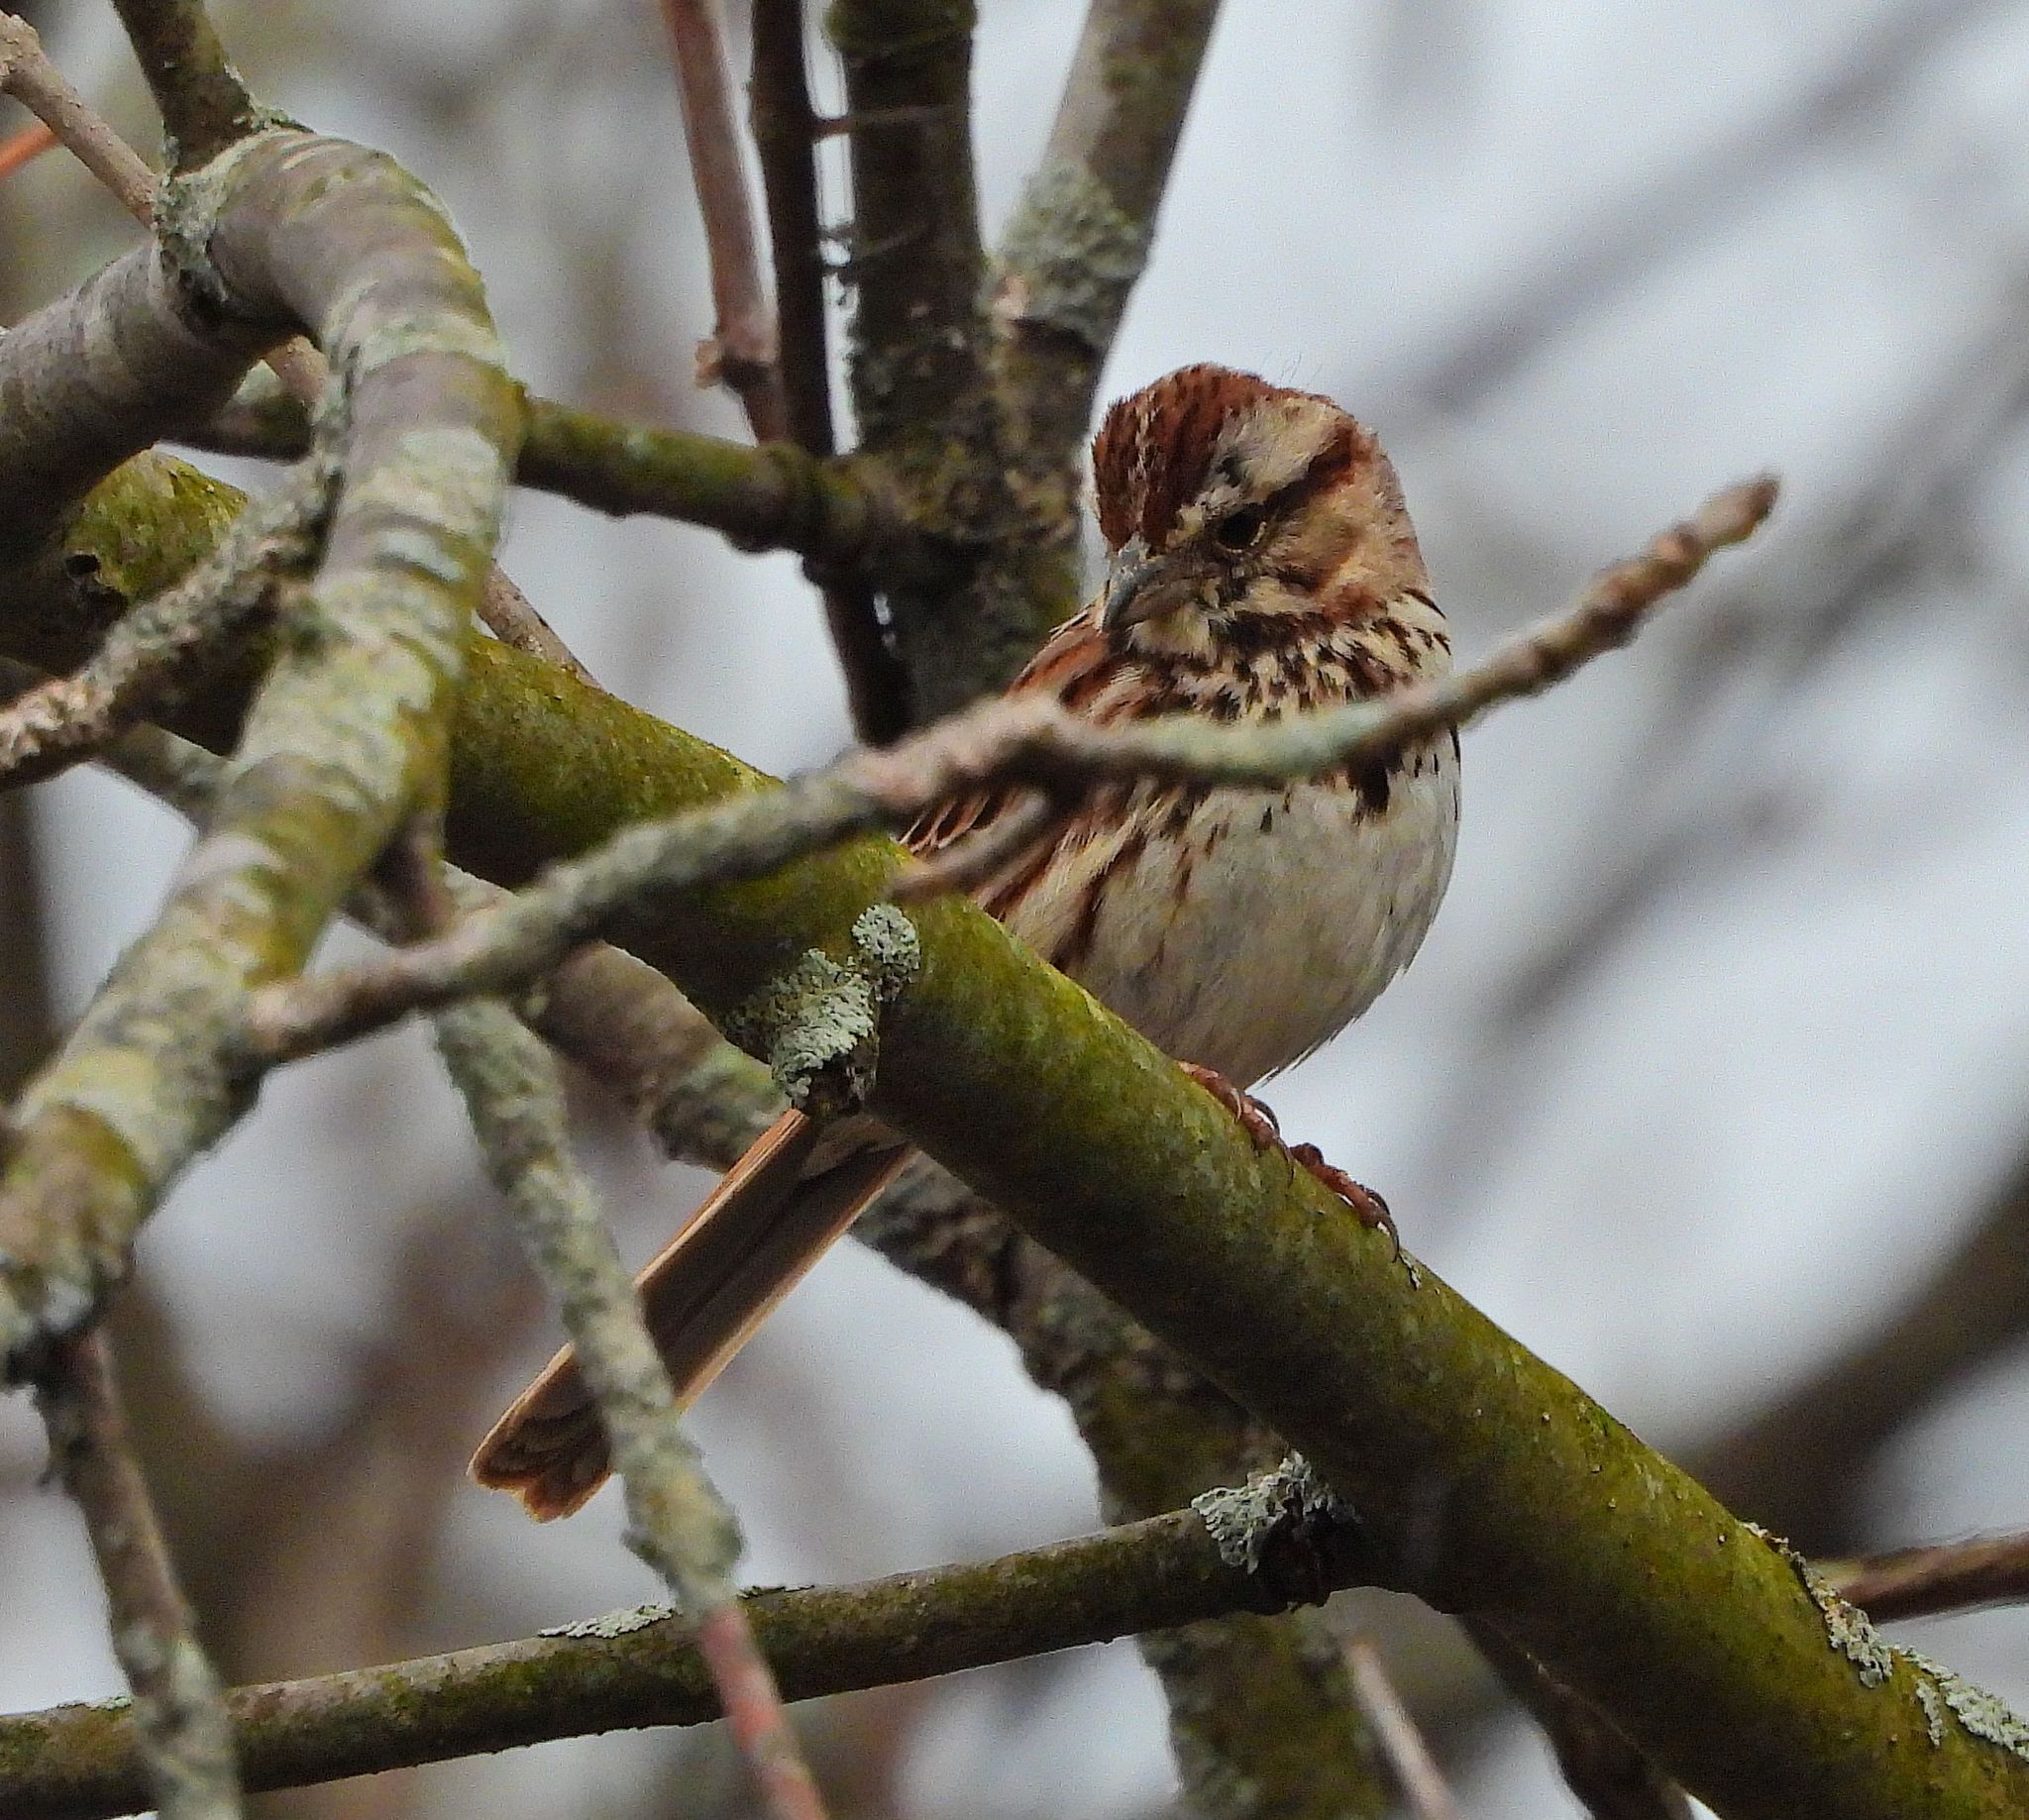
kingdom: Animalia
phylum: Chordata
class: Aves
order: Passeriformes
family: Passerellidae
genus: Melospiza
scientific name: Melospiza melodia
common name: Song sparrow
